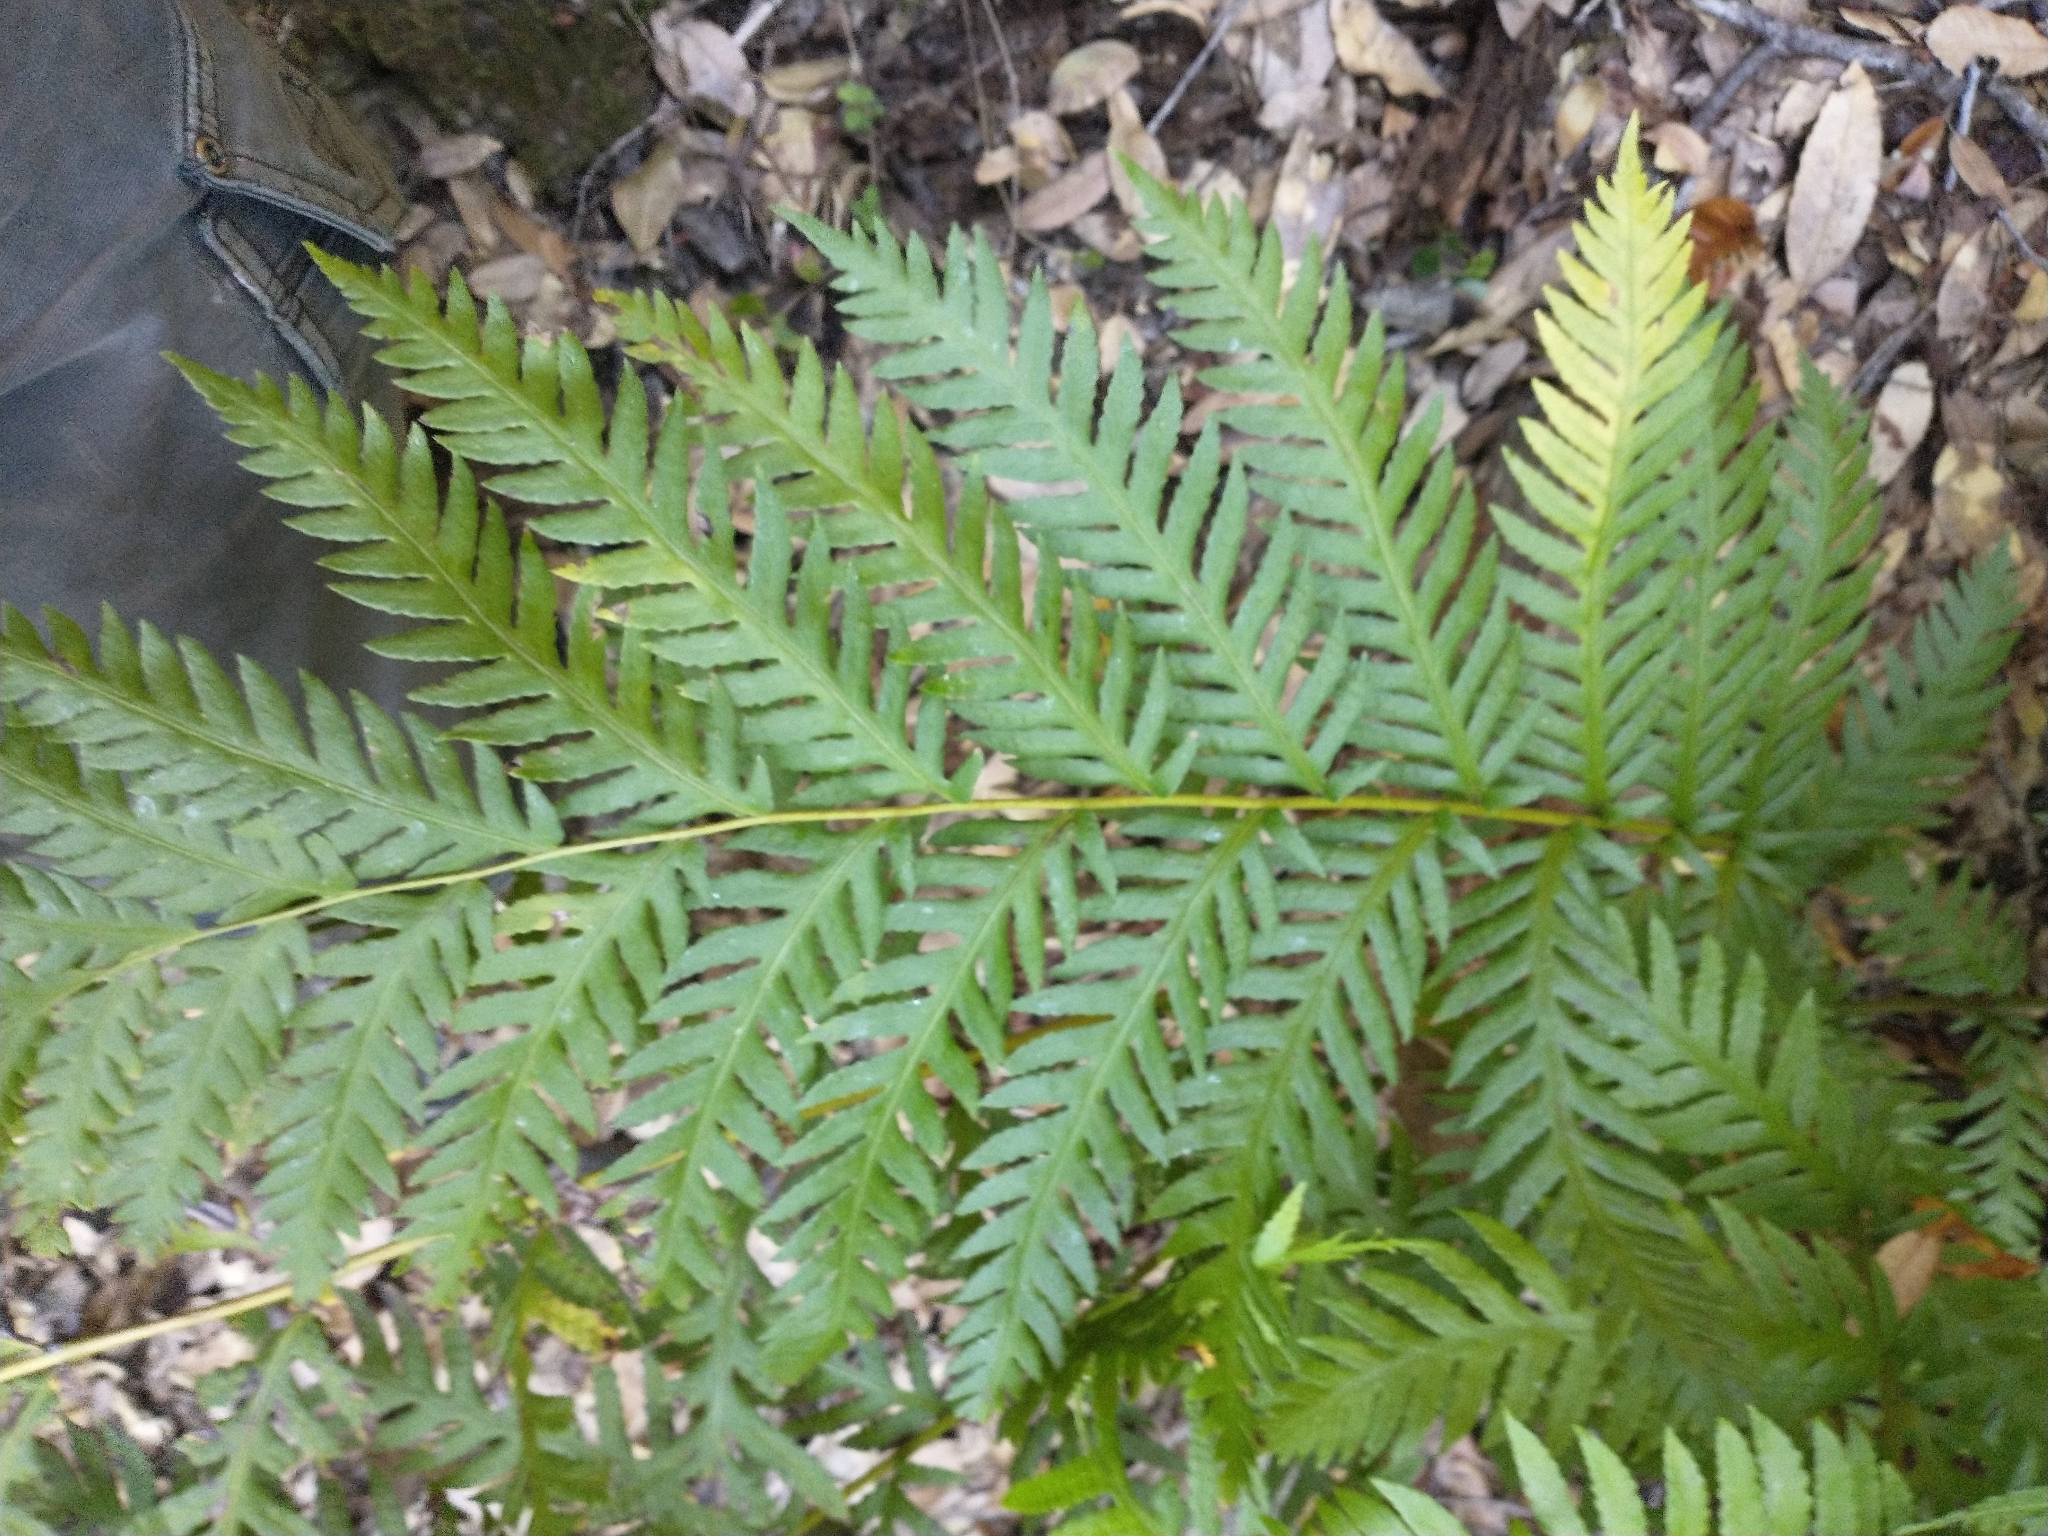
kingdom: Plantae
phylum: Tracheophyta
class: Polypodiopsida
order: Polypodiales
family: Blechnaceae
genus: Woodwardia
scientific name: Woodwardia fimbriata
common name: Giant chain fern
